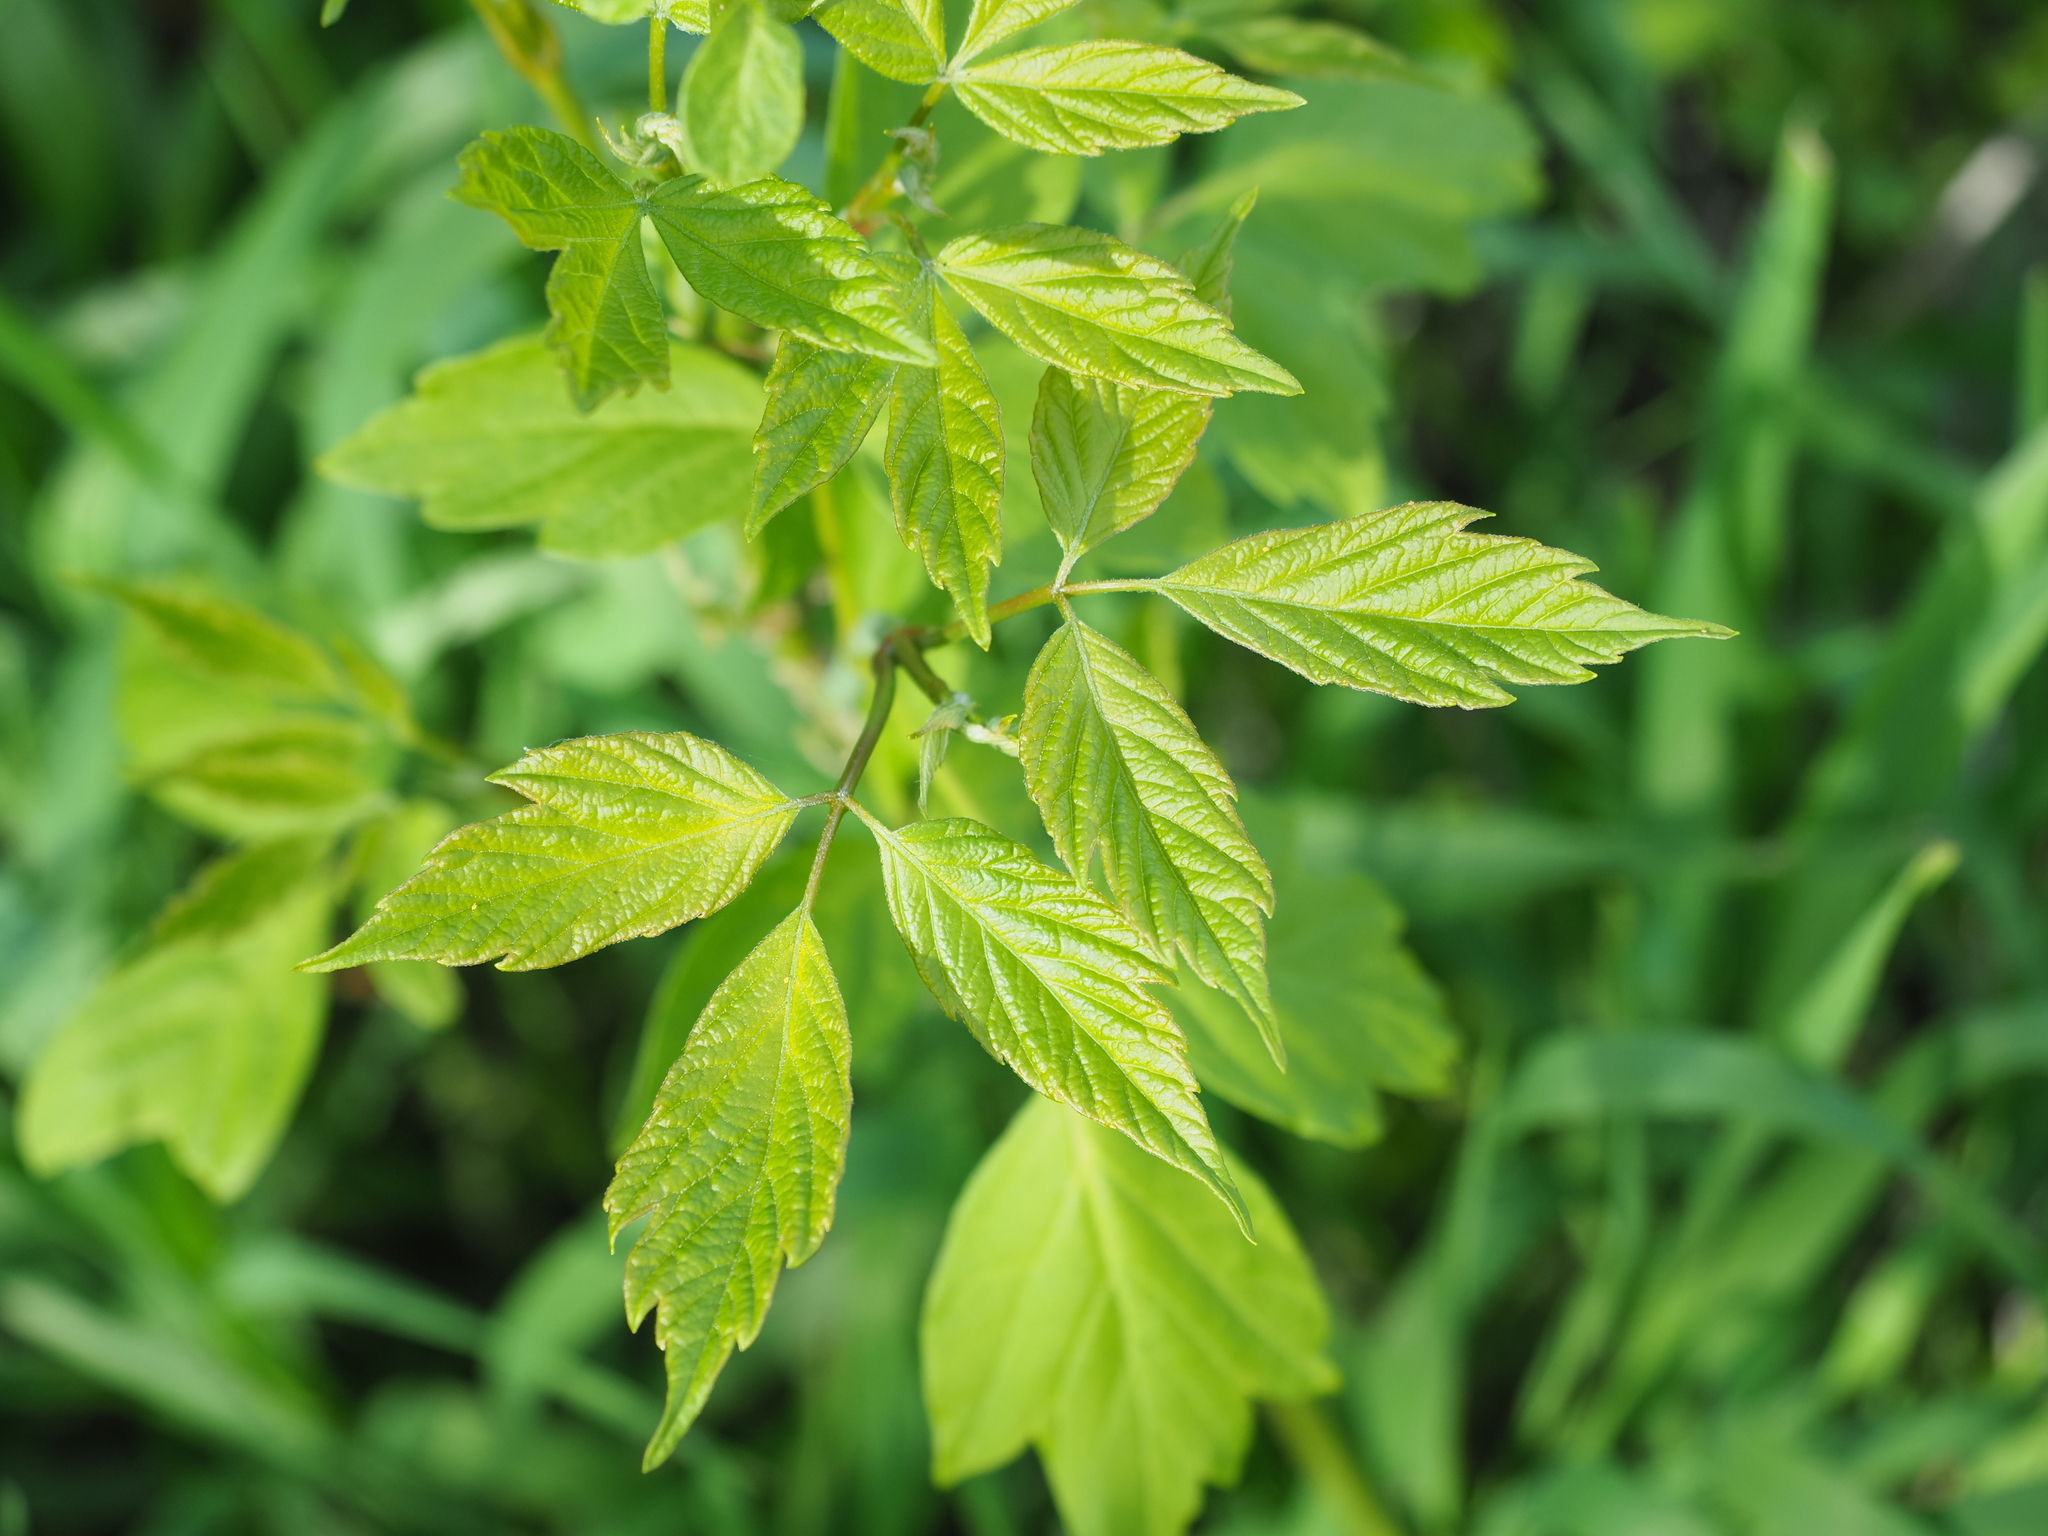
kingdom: Plantae
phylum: Tracheophyta
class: Magnoliopsida
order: Sapindales
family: Sapindaceae
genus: Acer
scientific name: Acer negundo
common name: Ashleaf maple
